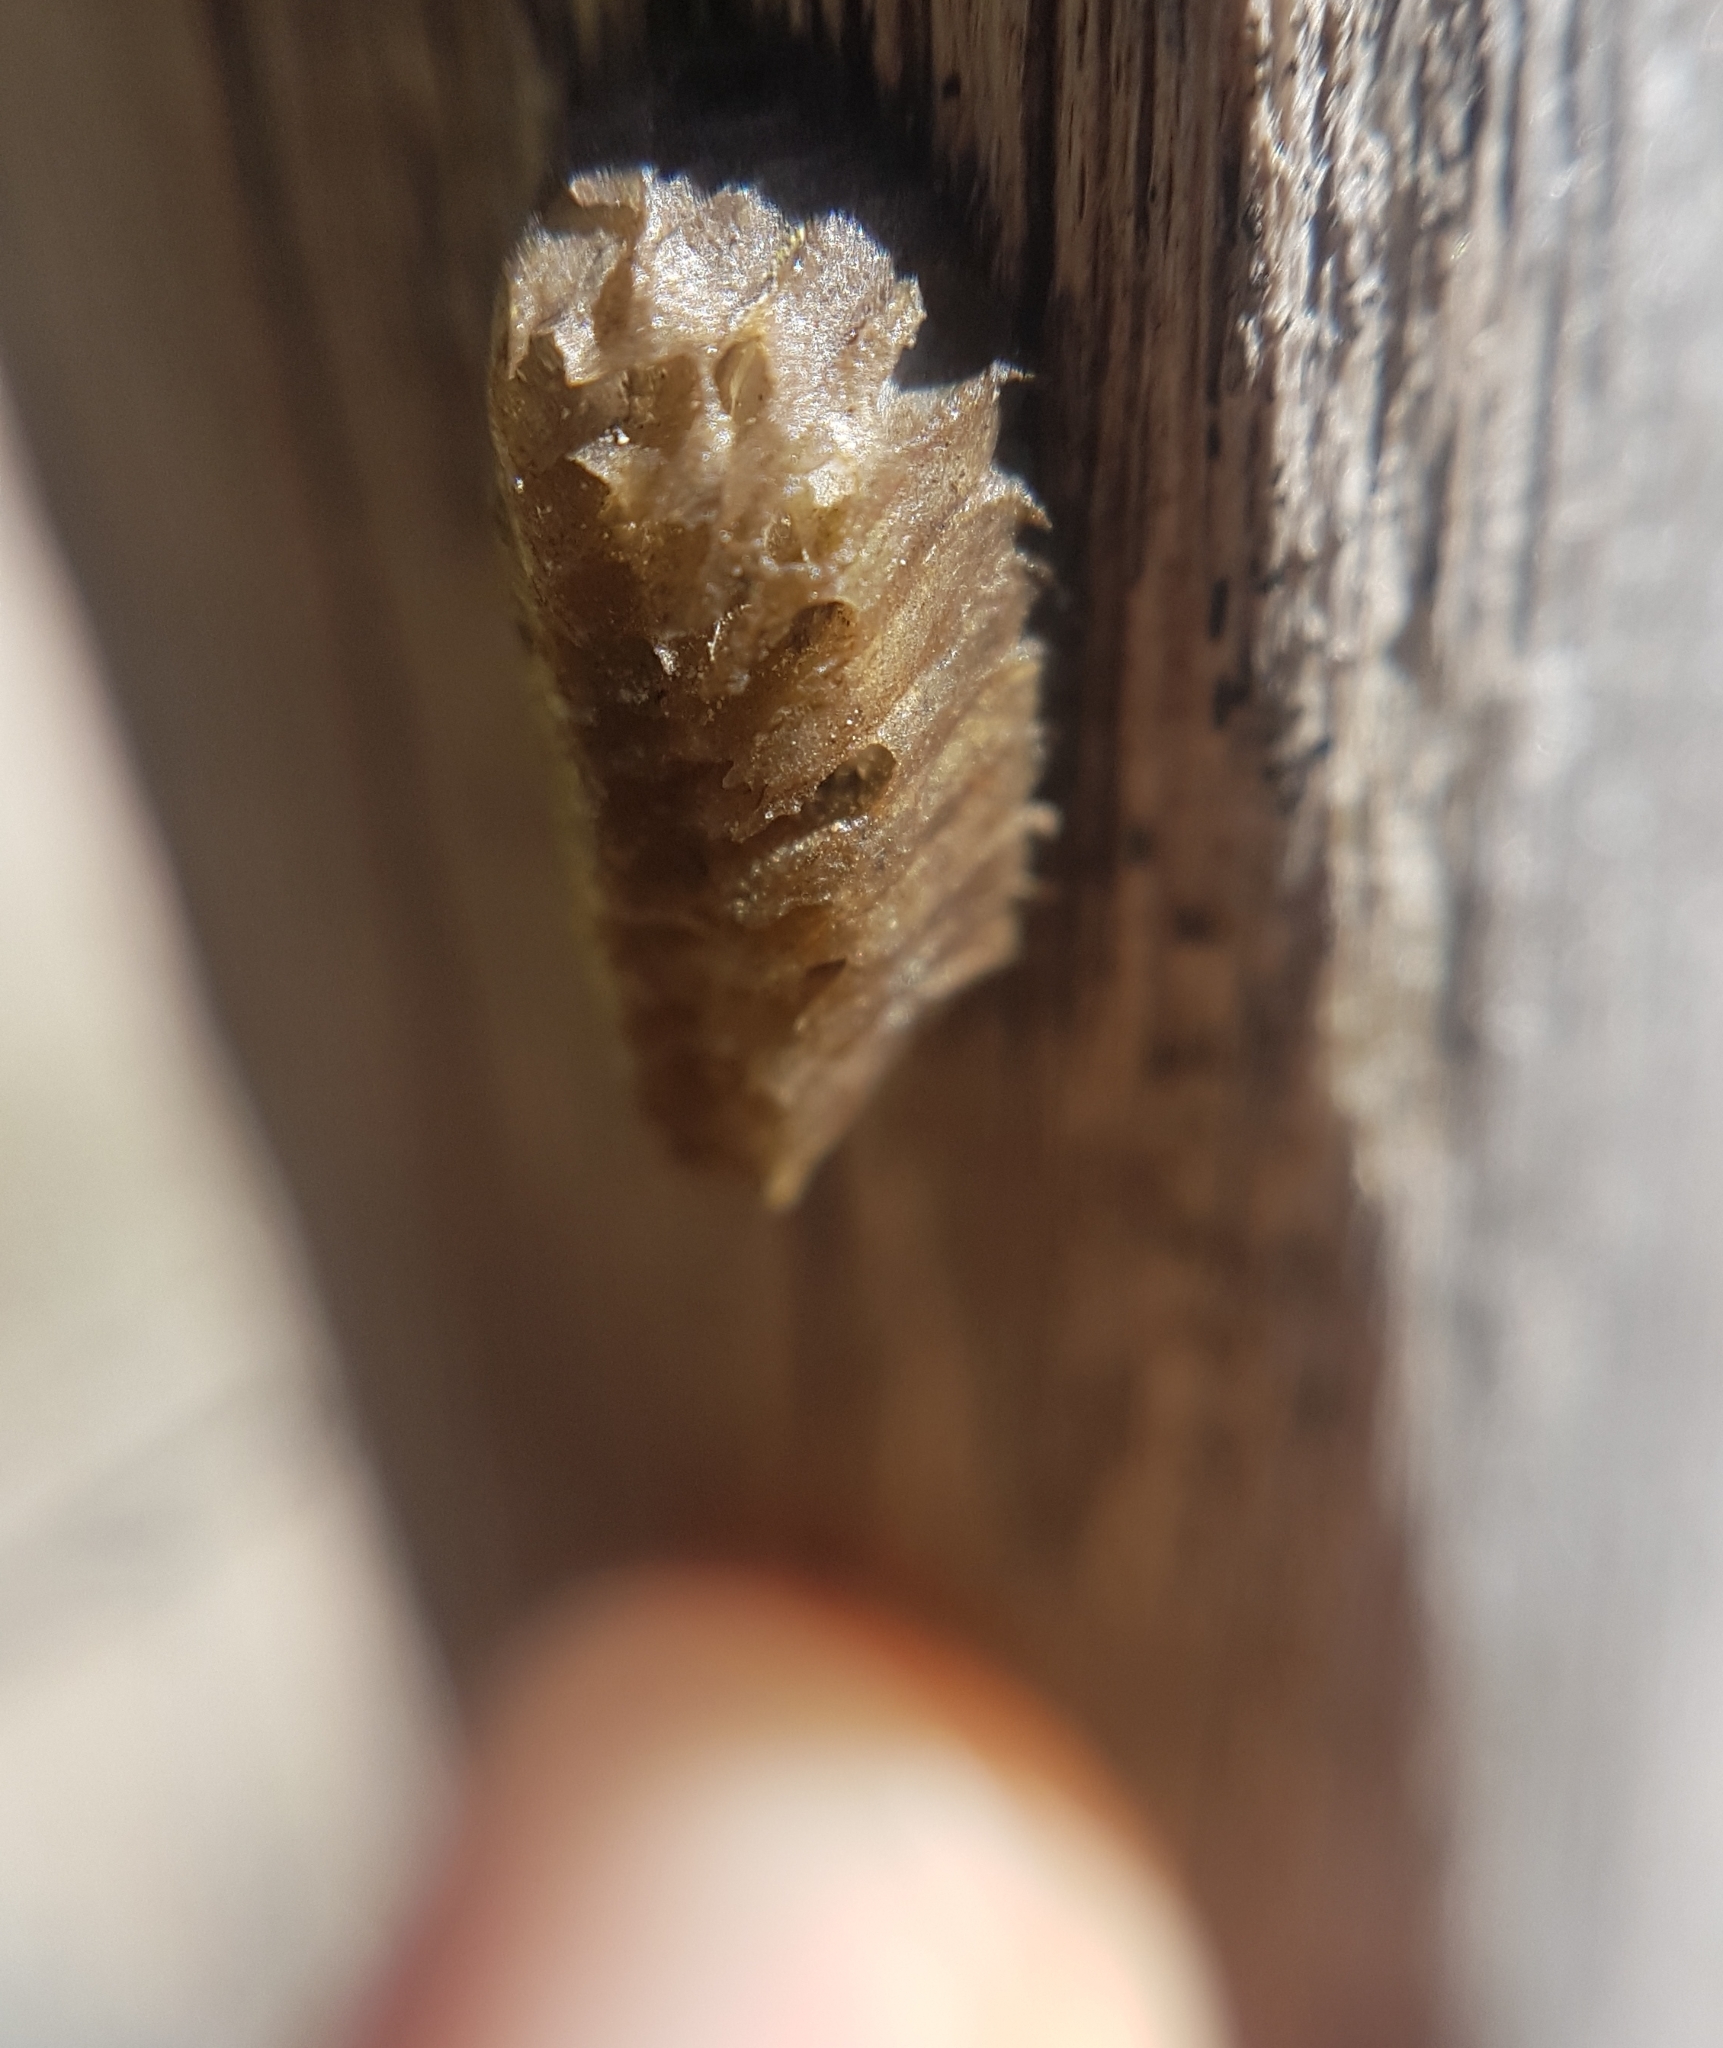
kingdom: Animalia
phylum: Arthropoda
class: Insecta
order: Mantodea
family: Empusidae
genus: Empusa
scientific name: Empusa pennata
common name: Conehead mantis
